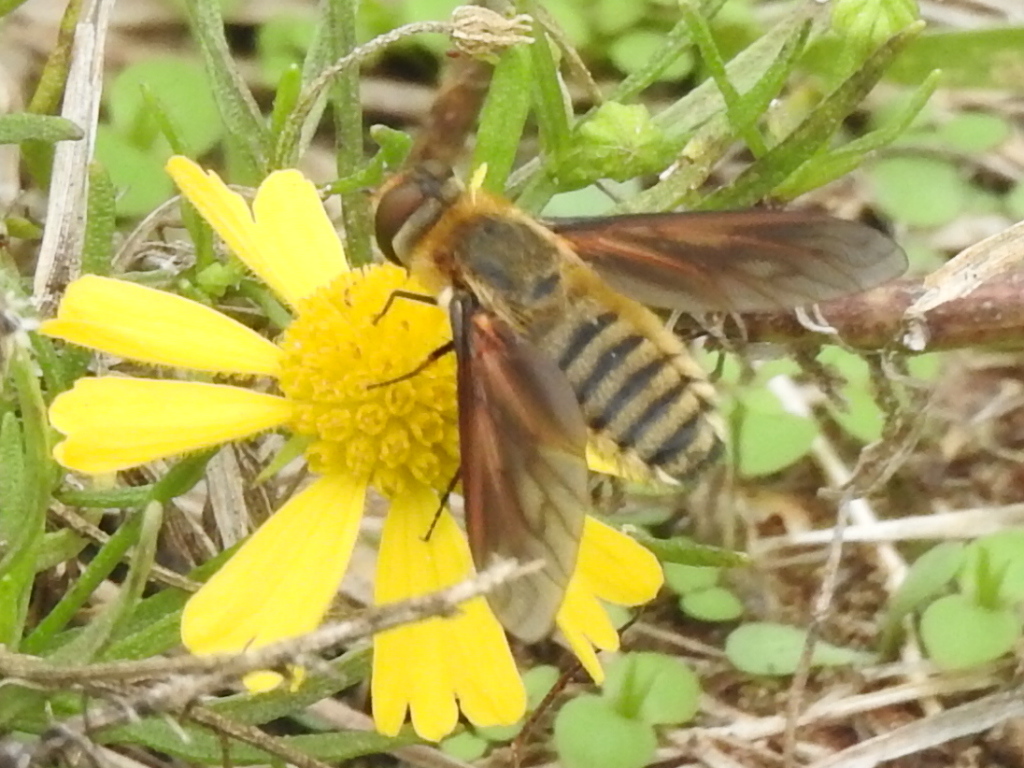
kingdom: Animalia
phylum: Arthropoda
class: Insecta
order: Diptera
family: Bombyliidae
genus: Poecilanthrax
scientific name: Poecilanthrax lucifer
